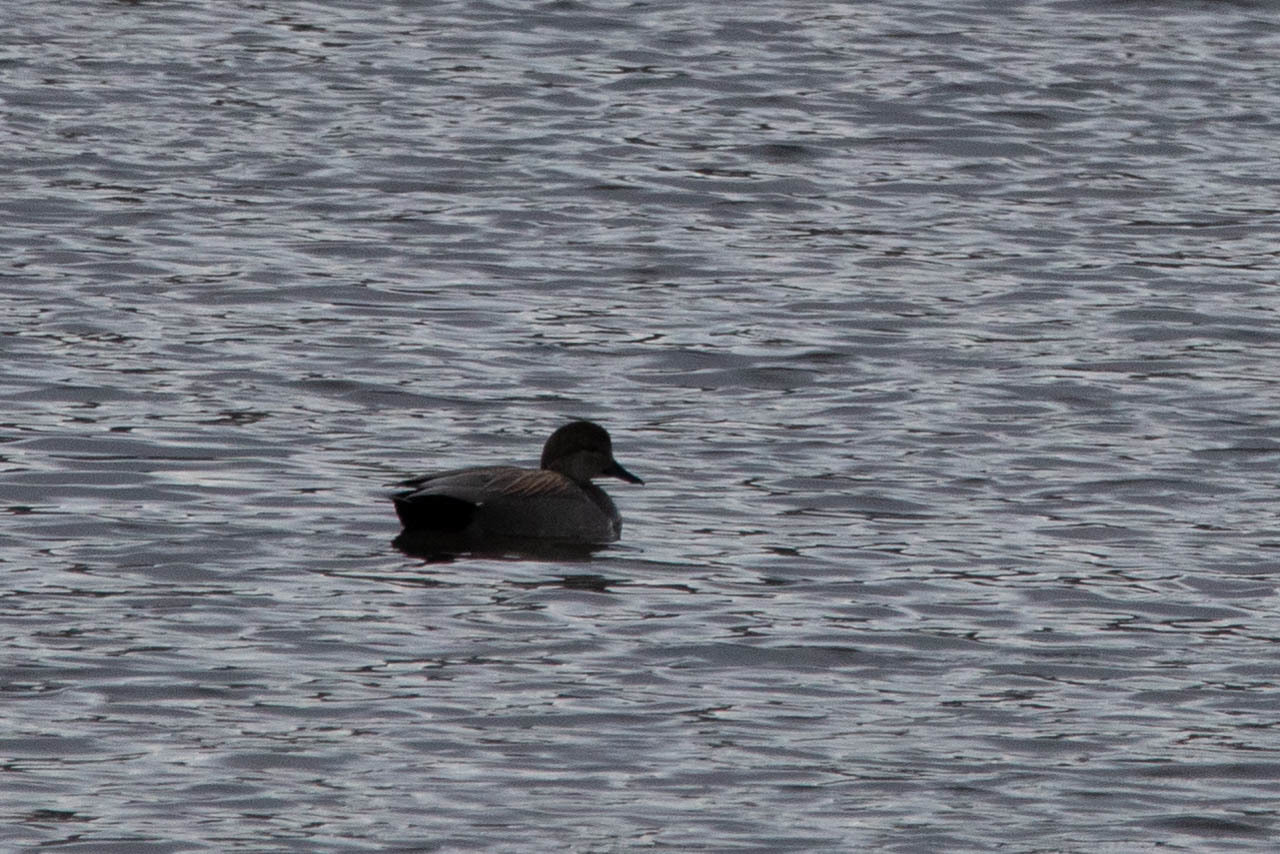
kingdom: Animalia
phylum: Chordata
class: Aves
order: Anseriformes
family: Anatidae
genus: Mareca
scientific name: Mareca strepera
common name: Gadwall
